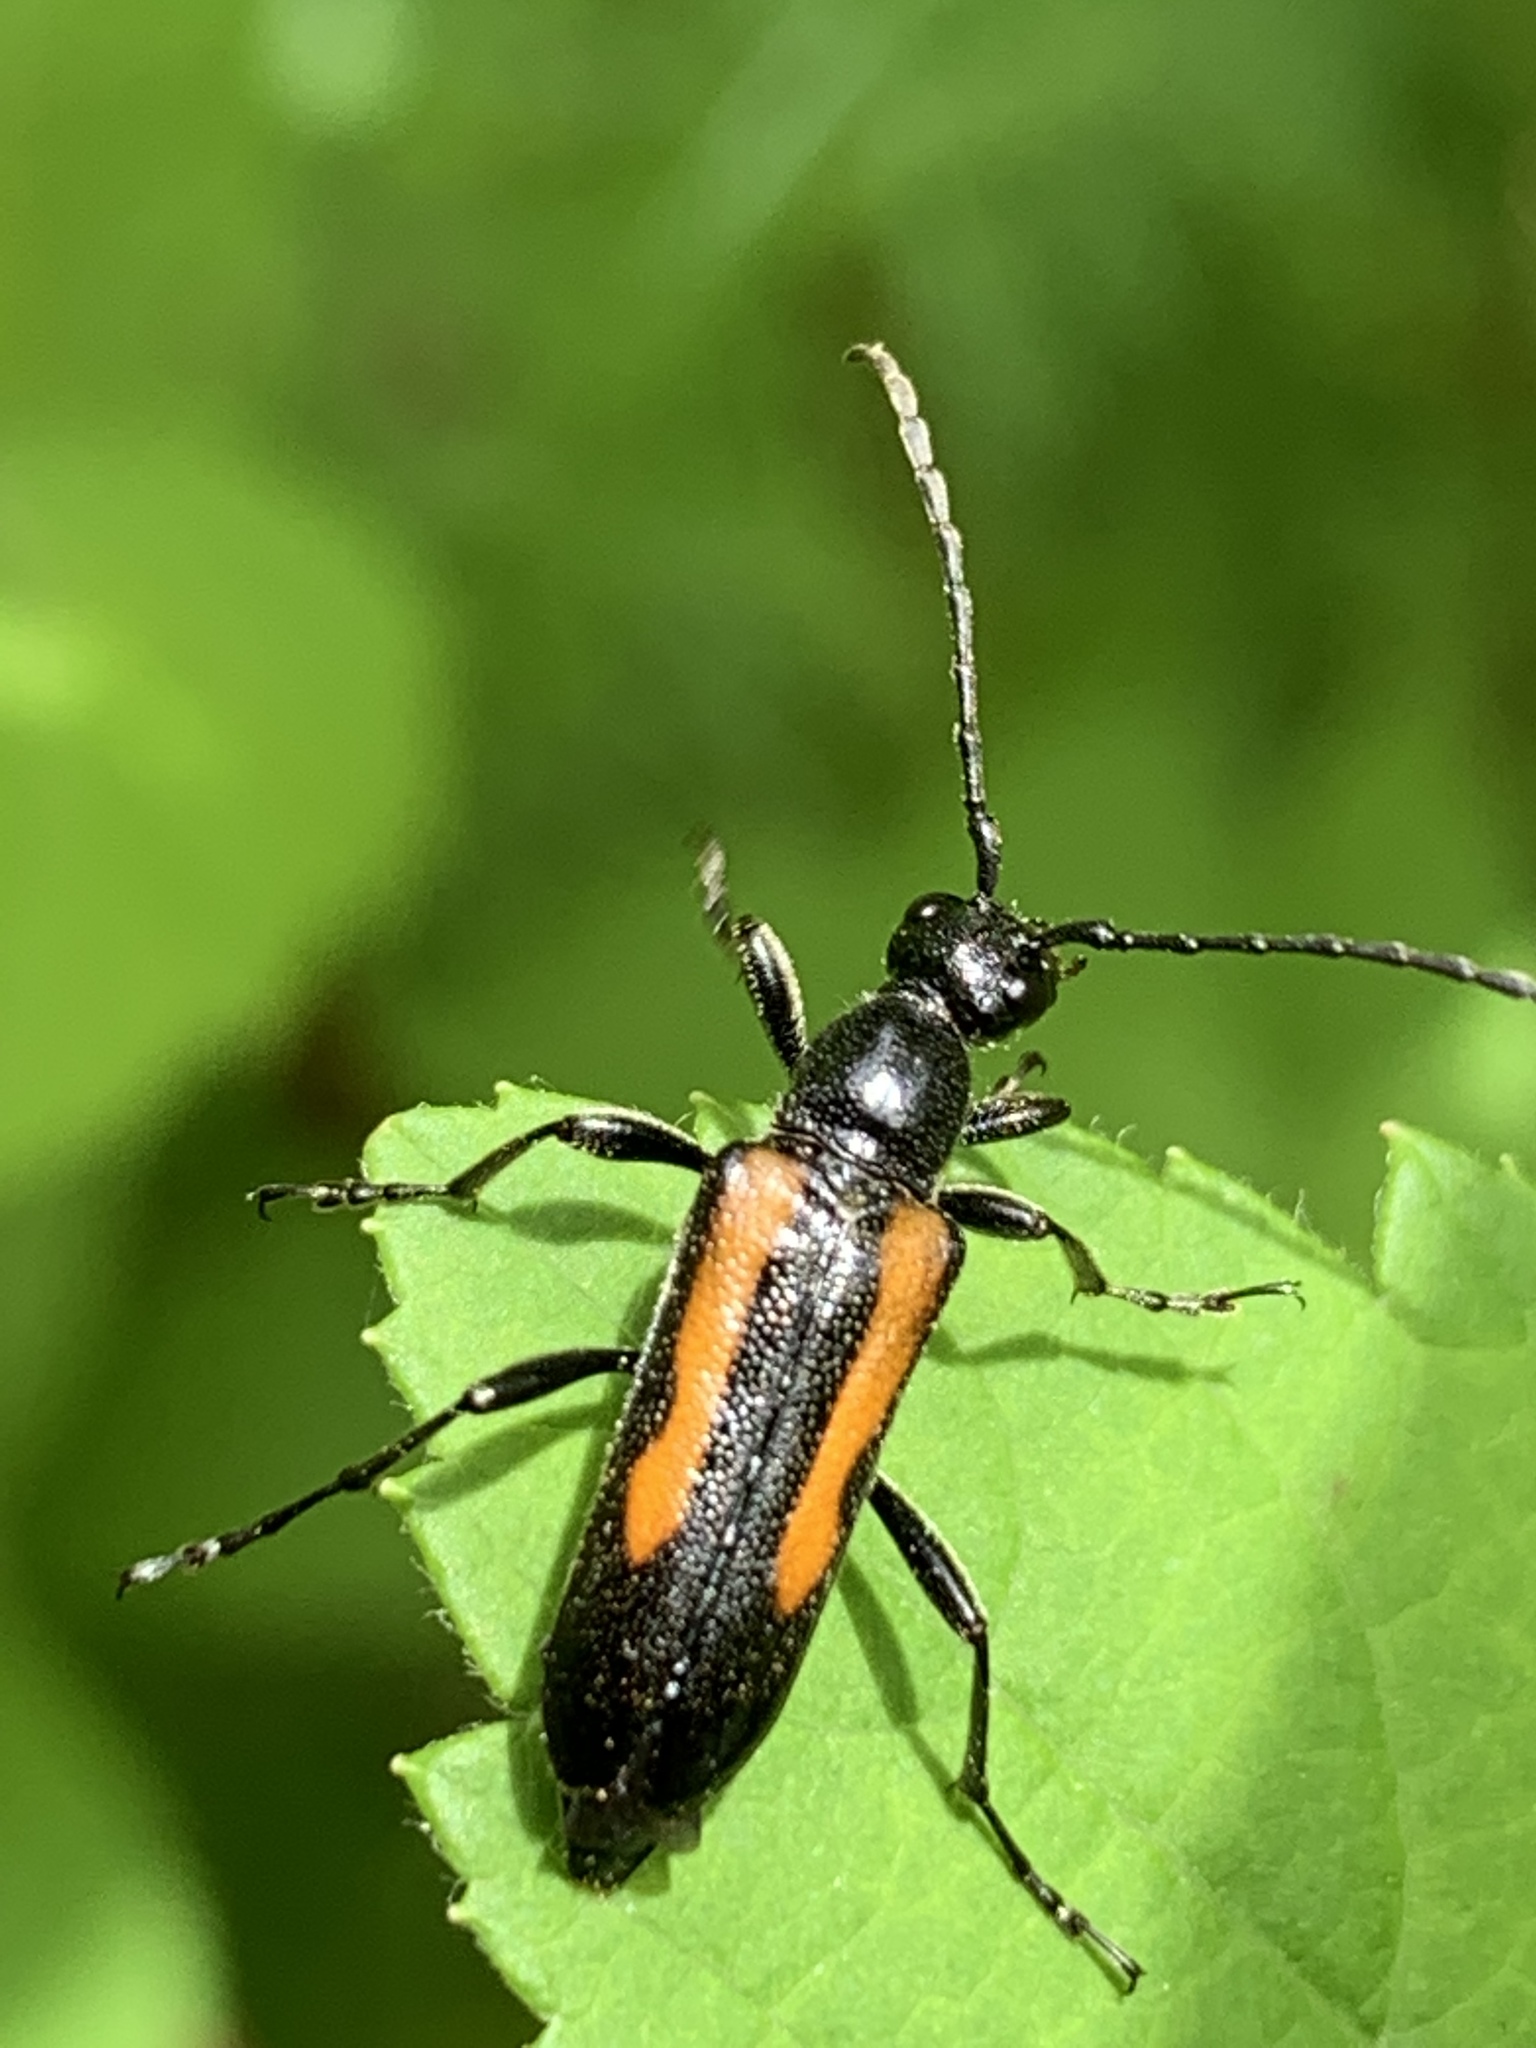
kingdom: Animalia
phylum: Arthropoda
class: Insecta
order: Coleoptera
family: Cerambycidae
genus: Strangalepta
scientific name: Strangalepta abbreviata
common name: Strangalepta flower longhorn beetle
